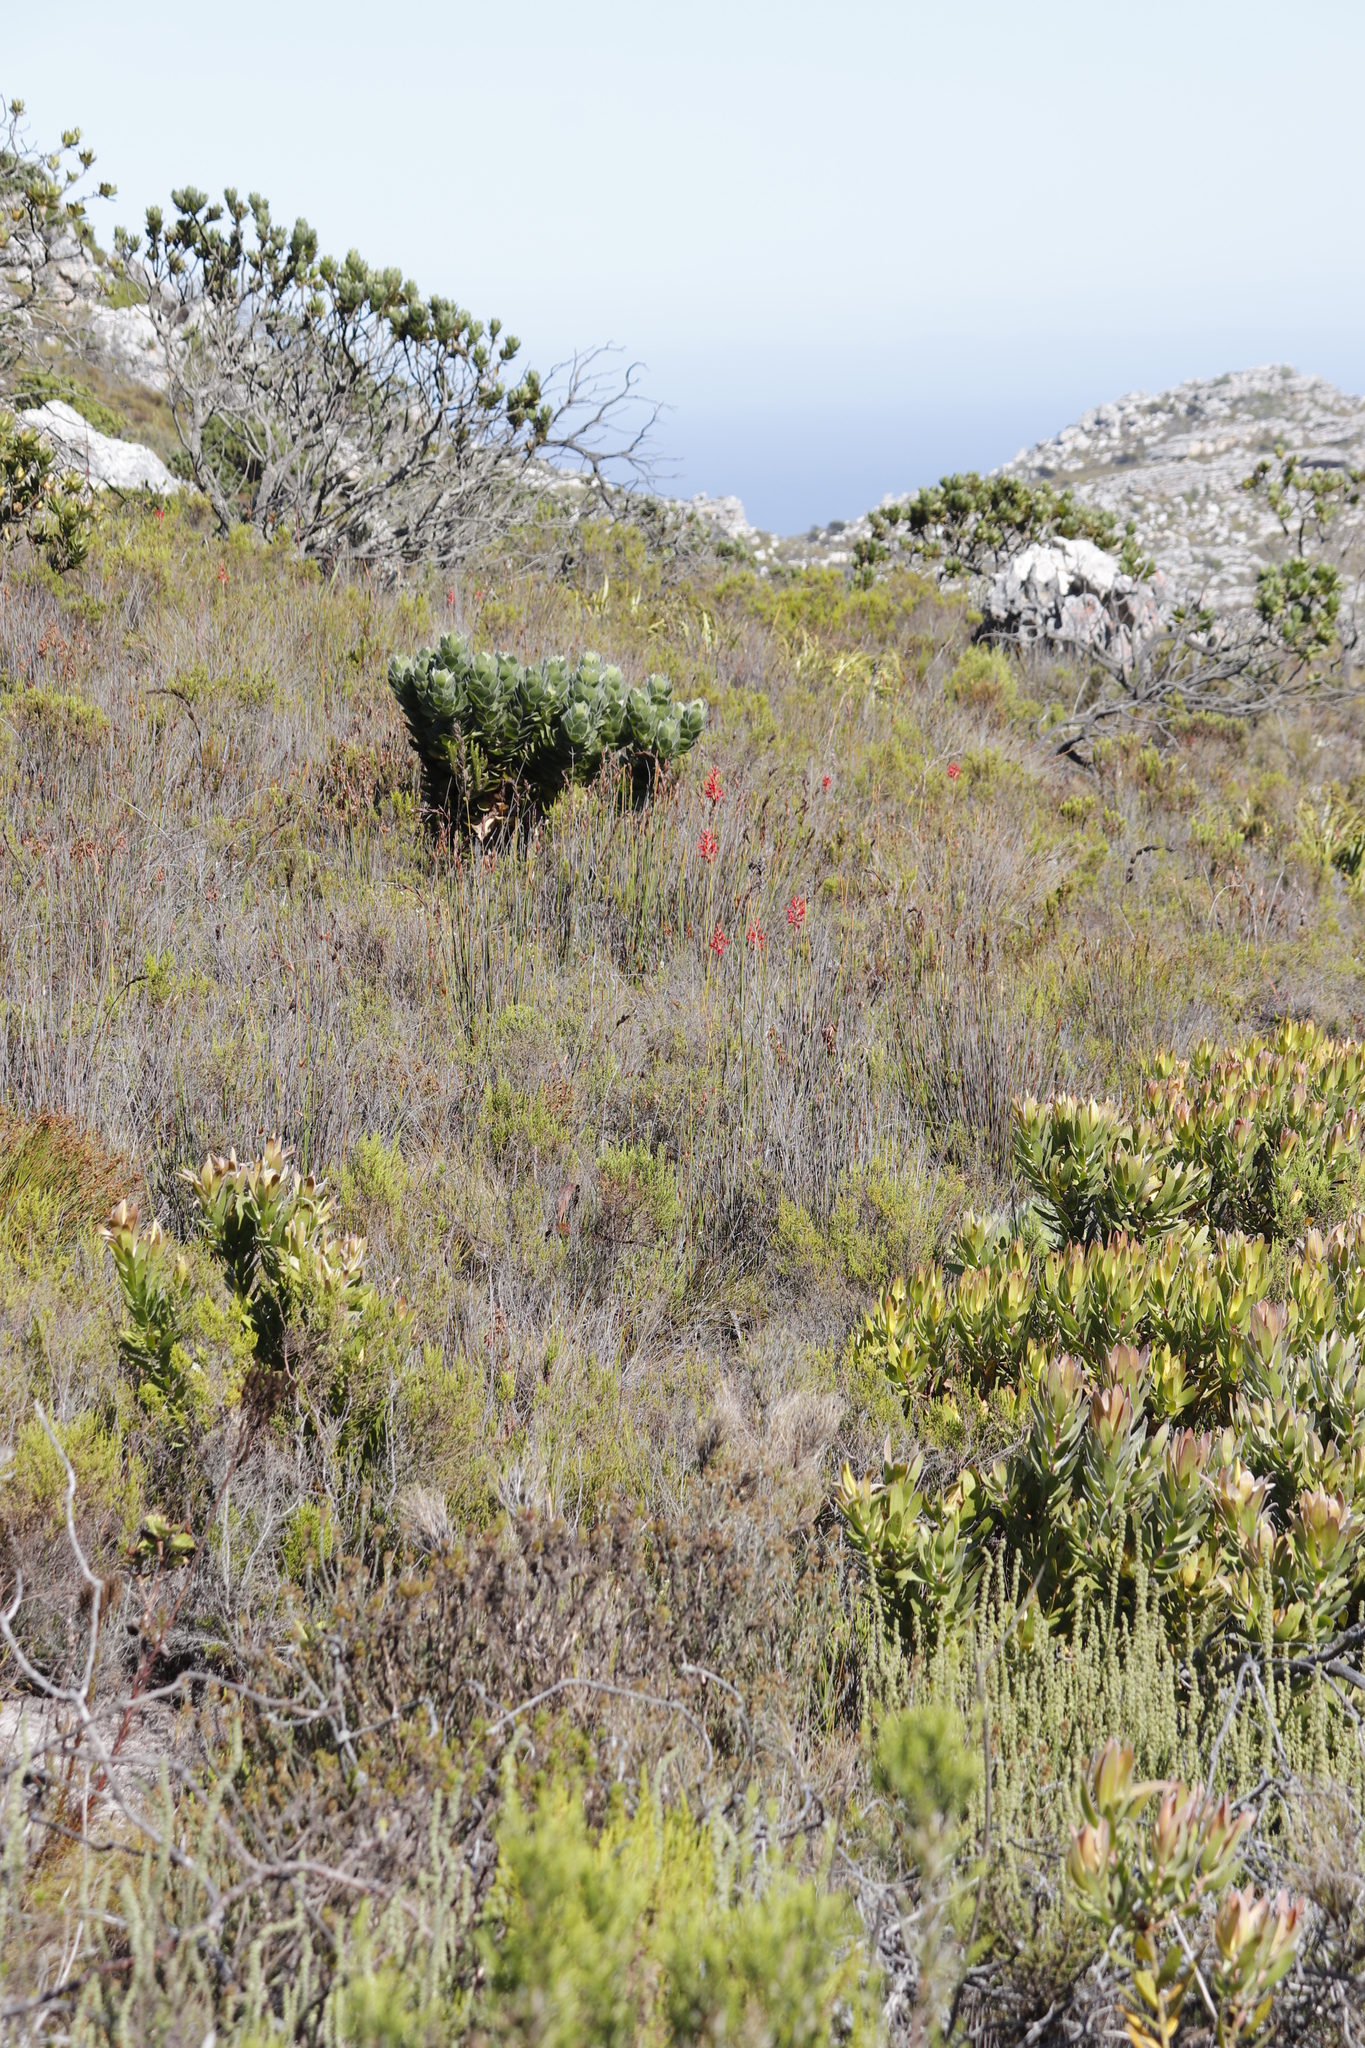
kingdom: Plantae
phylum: Tracheophyta
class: Liliopsida
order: Asparagales
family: Iridaceae
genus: Tritoniopsis
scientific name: Tritoniopsis triticea
